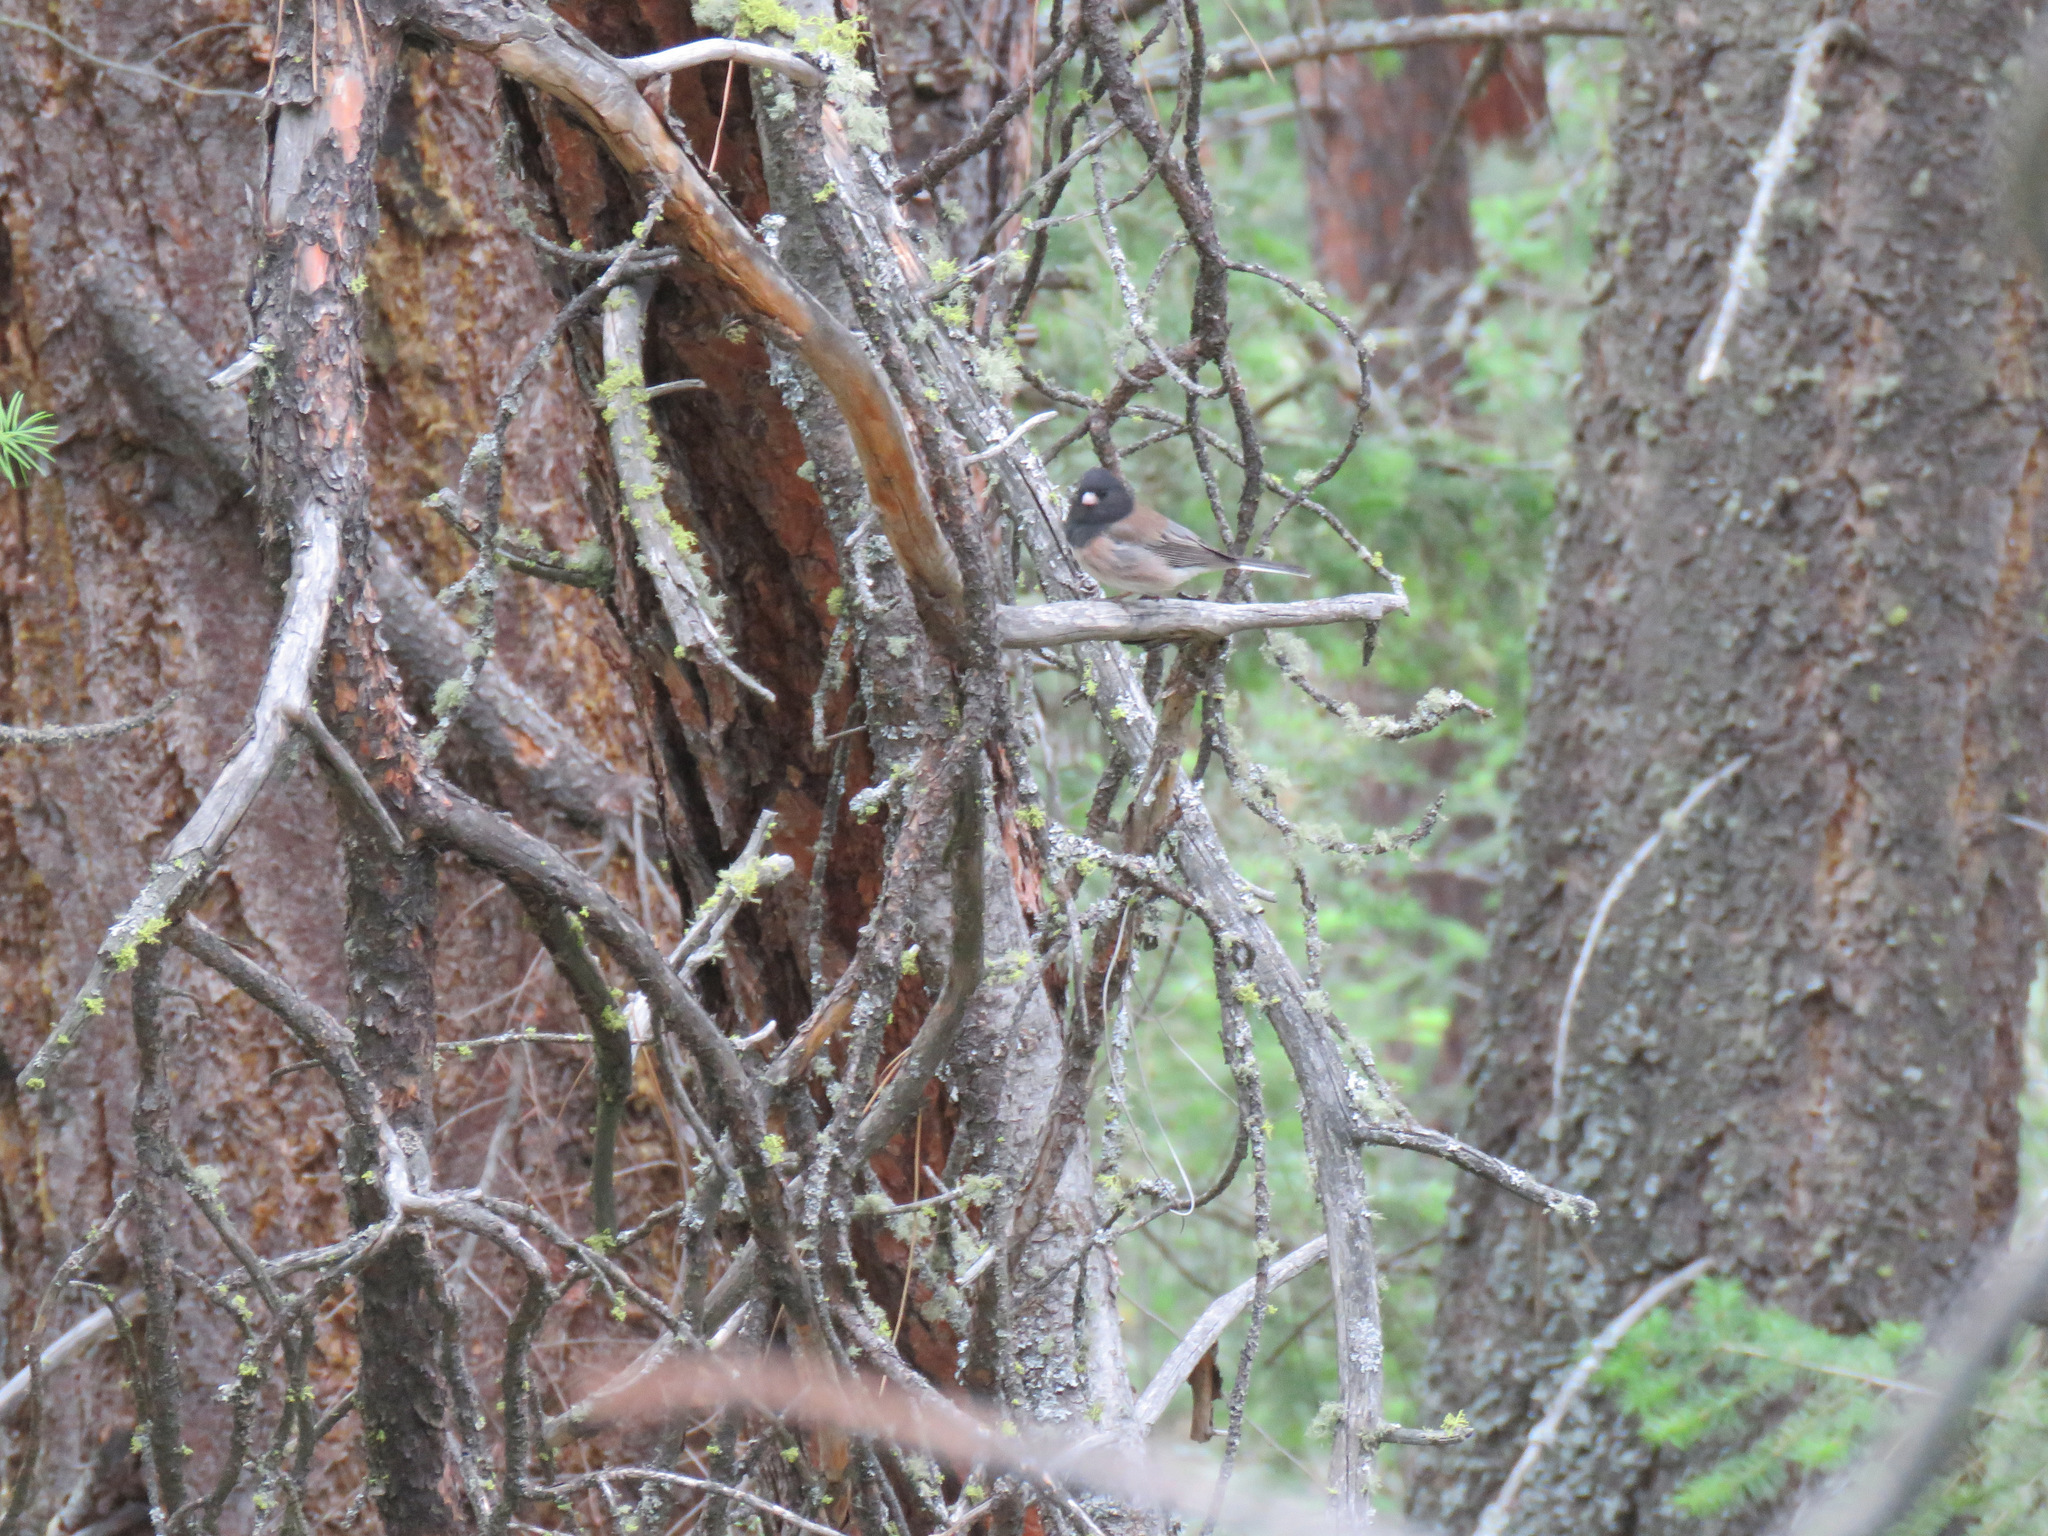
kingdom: Animalia
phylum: Chordata
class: Aves
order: Passeriformes
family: Passerellidae
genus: Junco
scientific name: Junco hyemalis
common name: Dark-eyed junco
